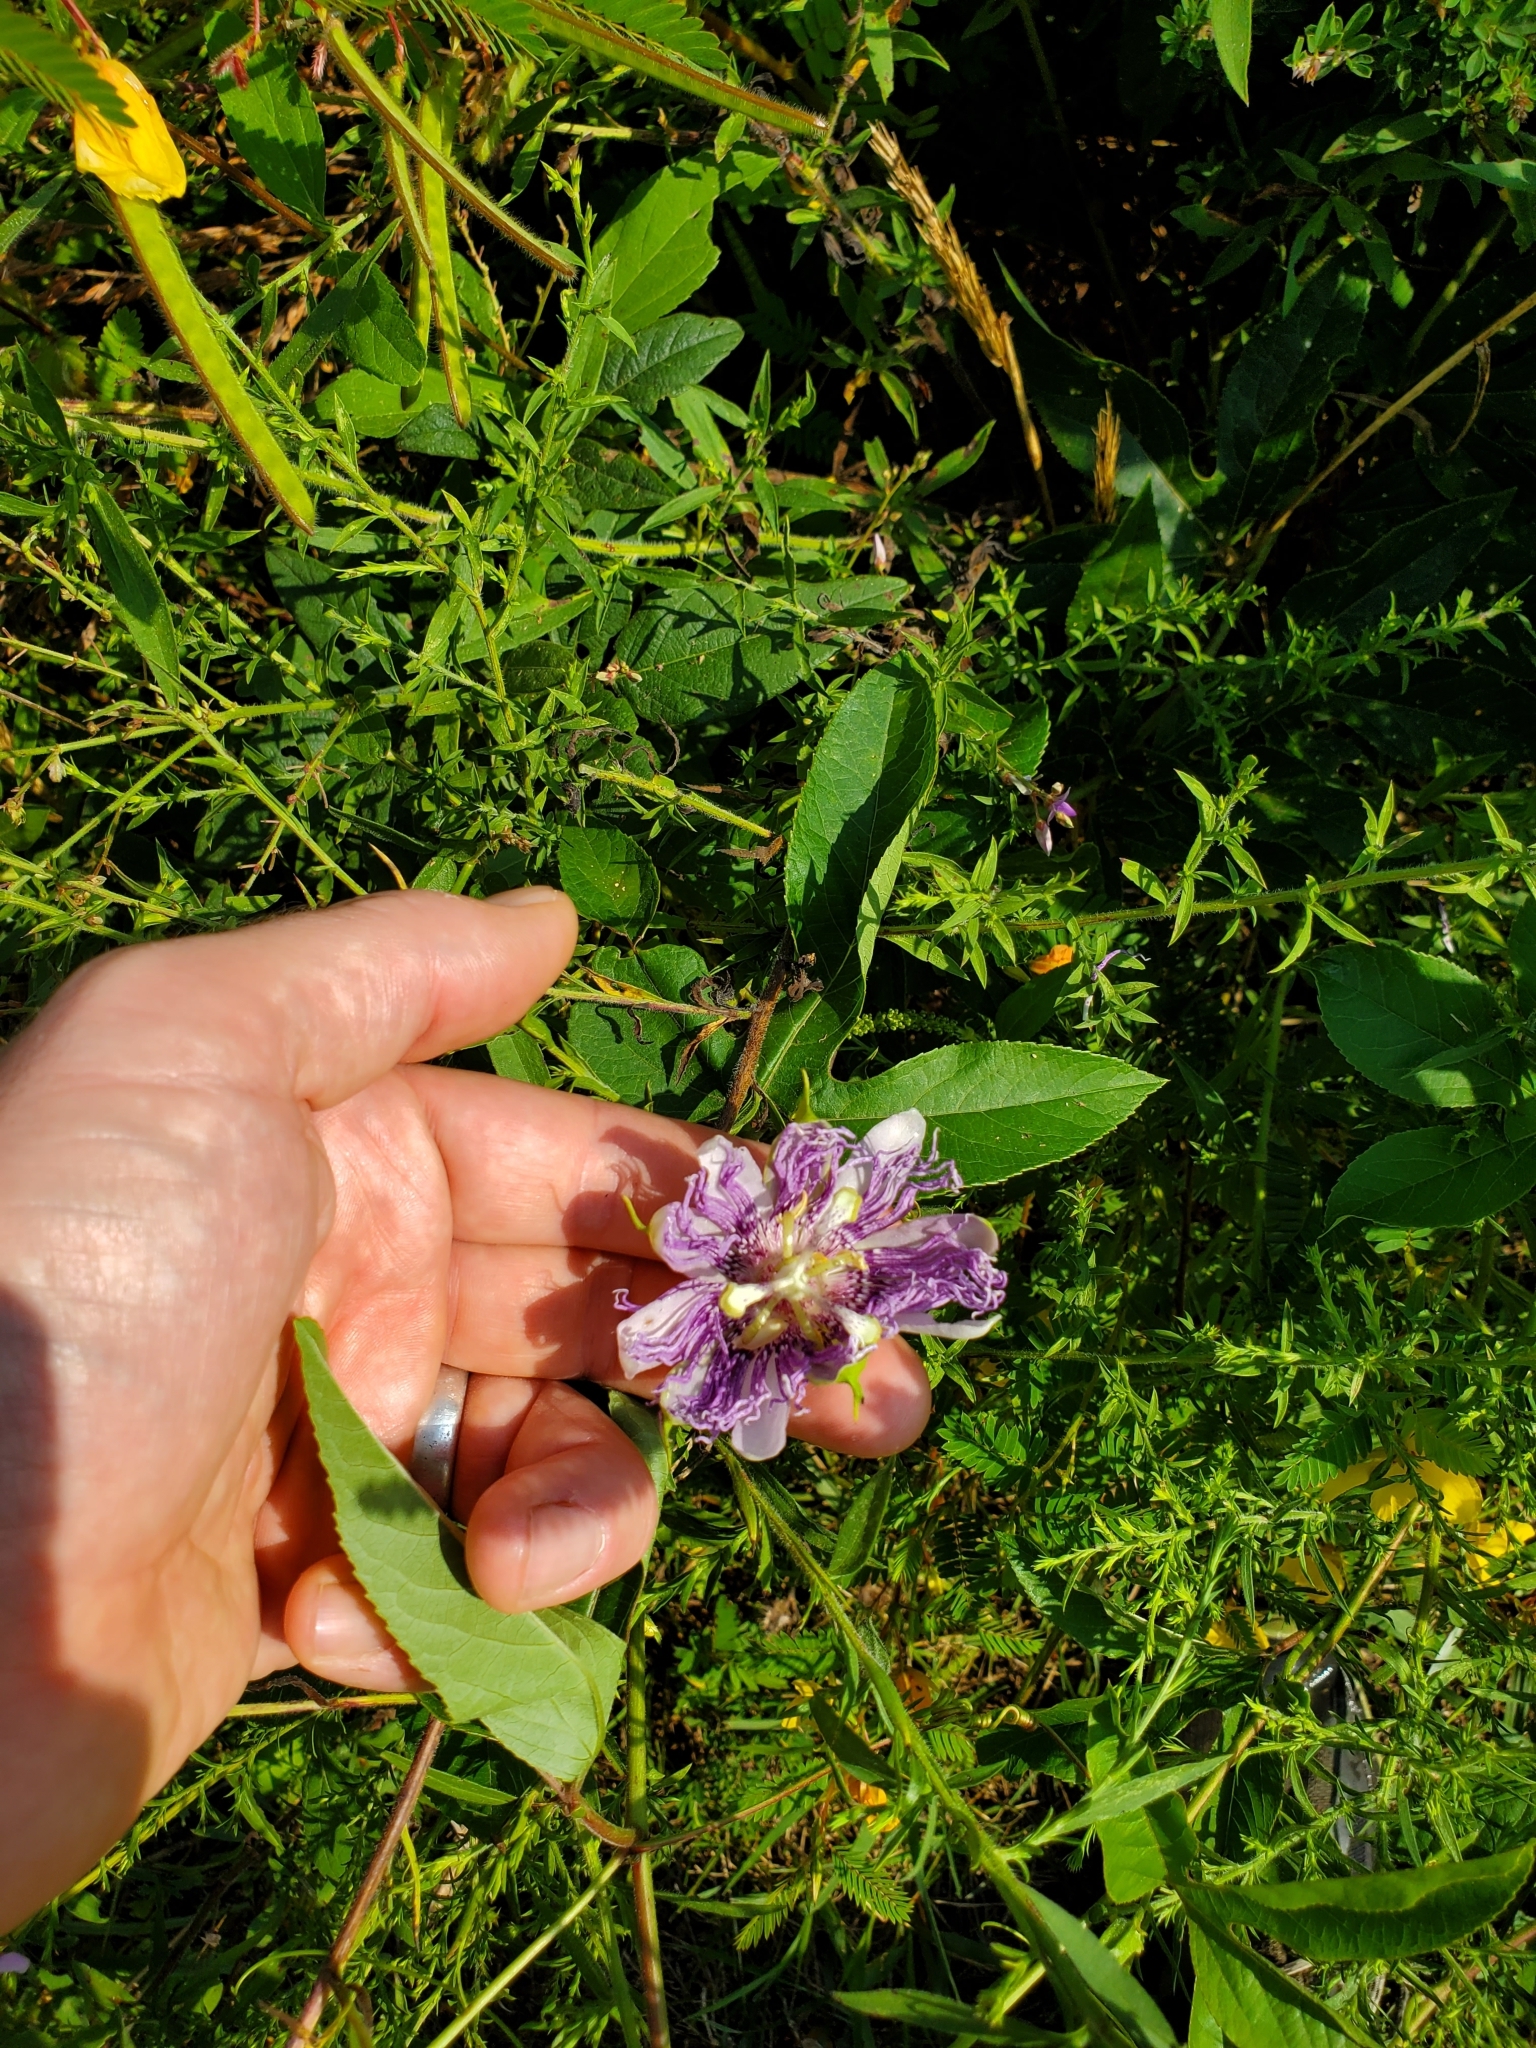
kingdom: Plantae
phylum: Tracheophyta
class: Magnoliopsida
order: Malpighiales
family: Passifloraceae
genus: Passiflora
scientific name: Passiflora incarnata
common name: Apricot-vine
